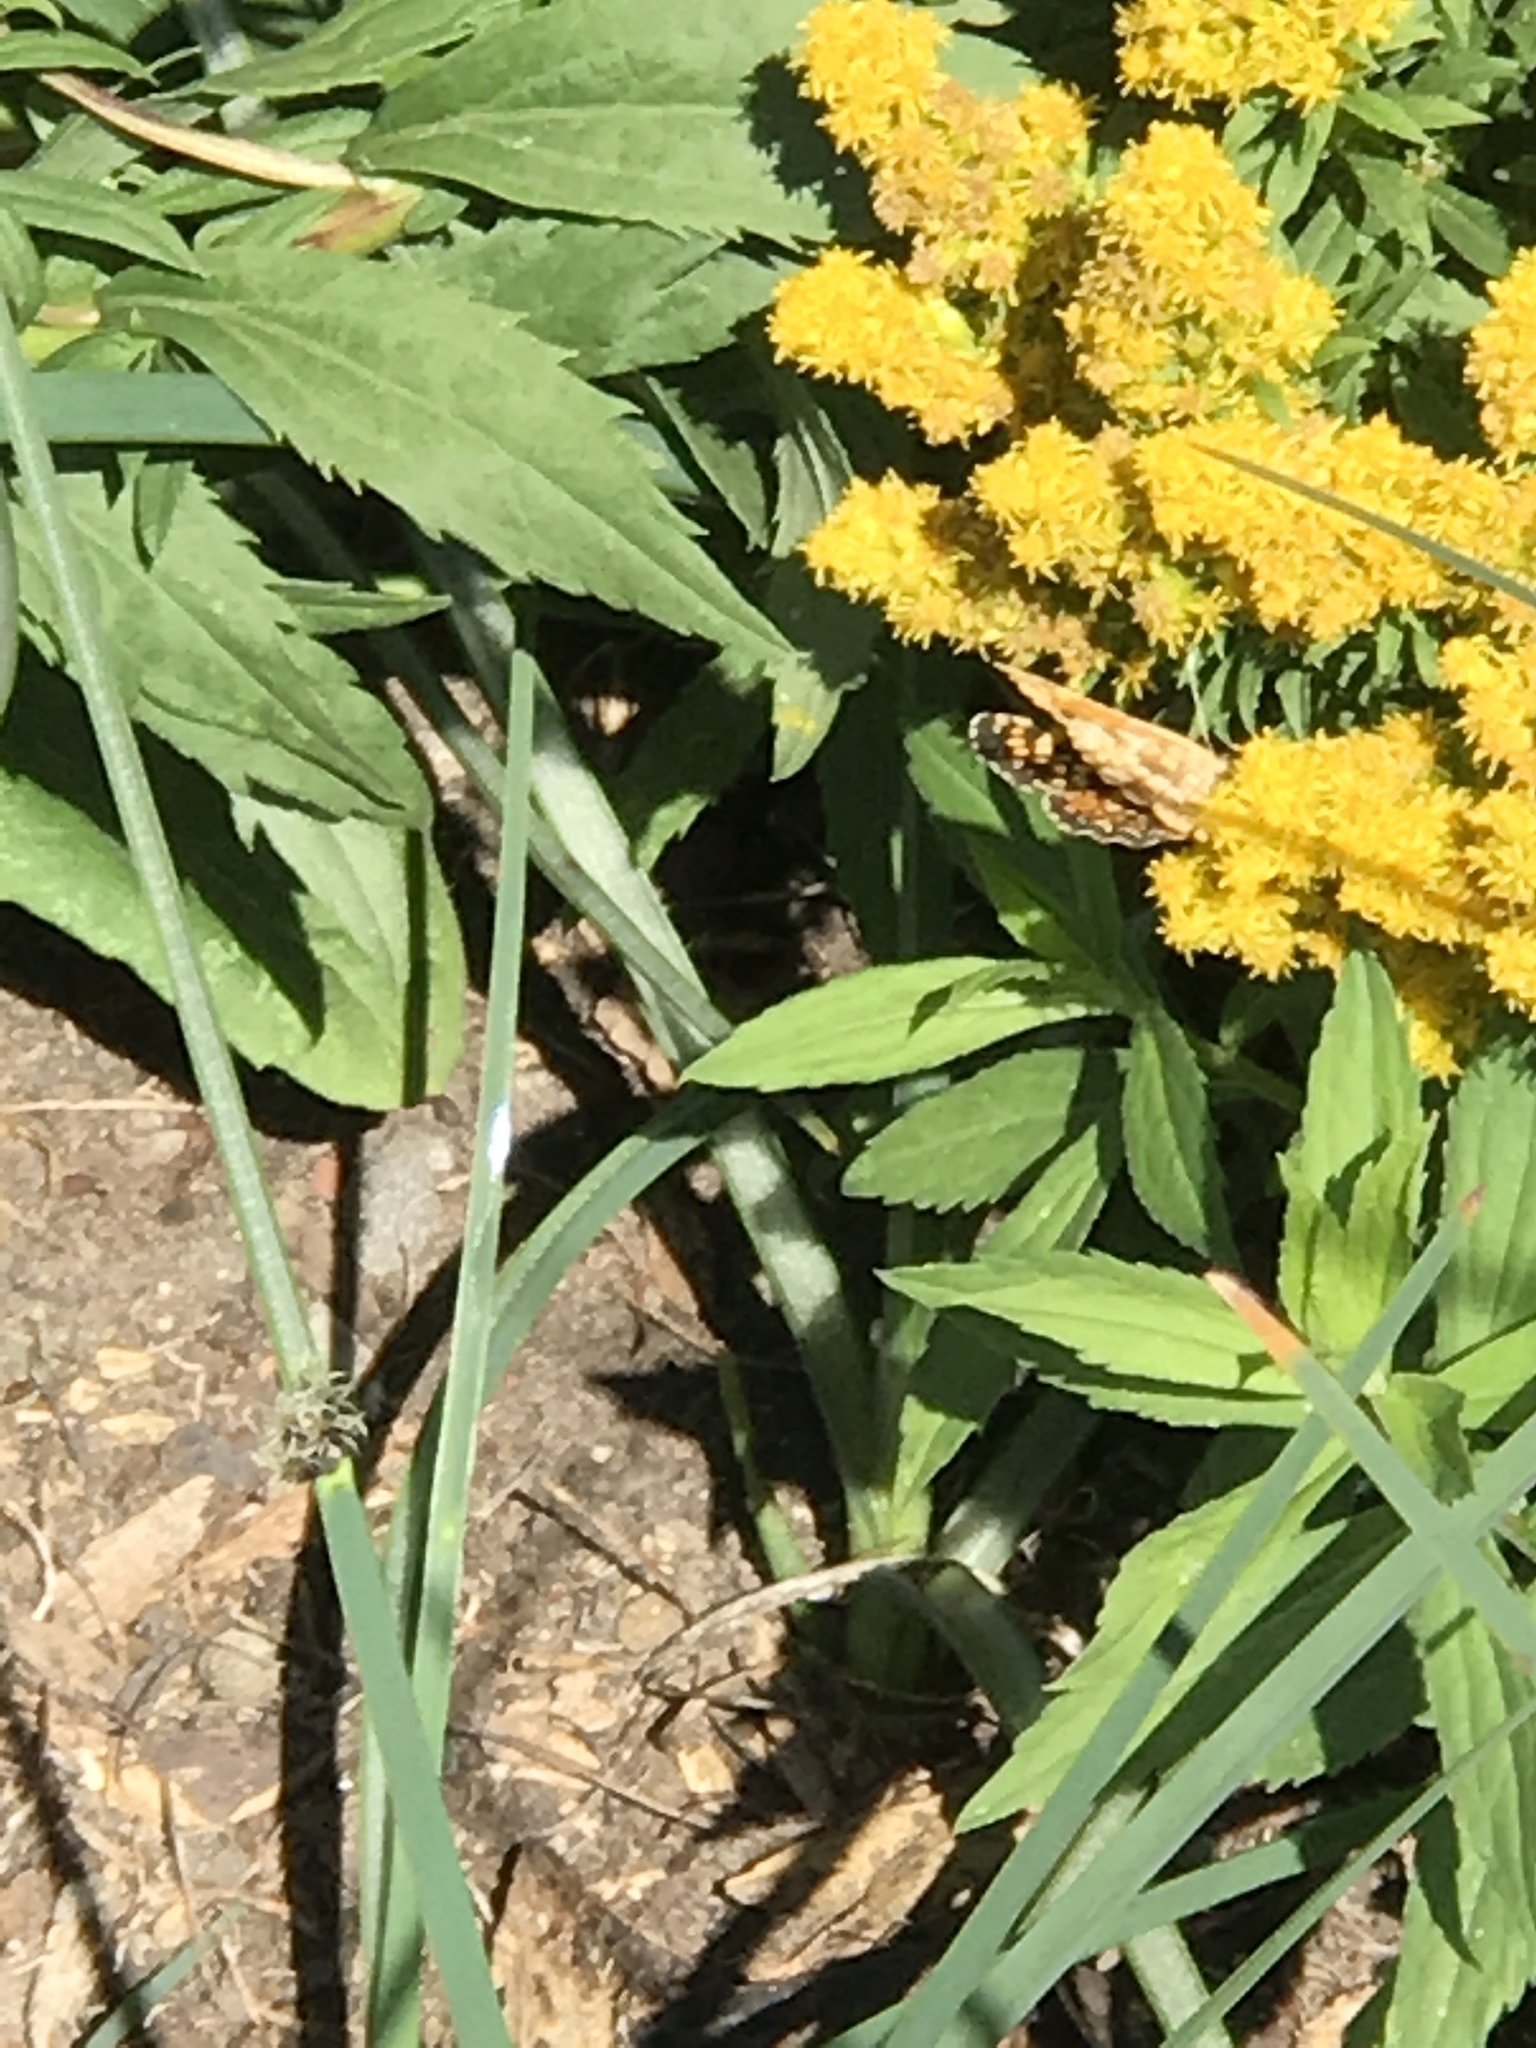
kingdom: Animalia
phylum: Arthropoda
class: Insecta
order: Lepidoptera
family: Nymphalidae
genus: Phyciodes
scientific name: Phyciodes tharos
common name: Pearl crescent
